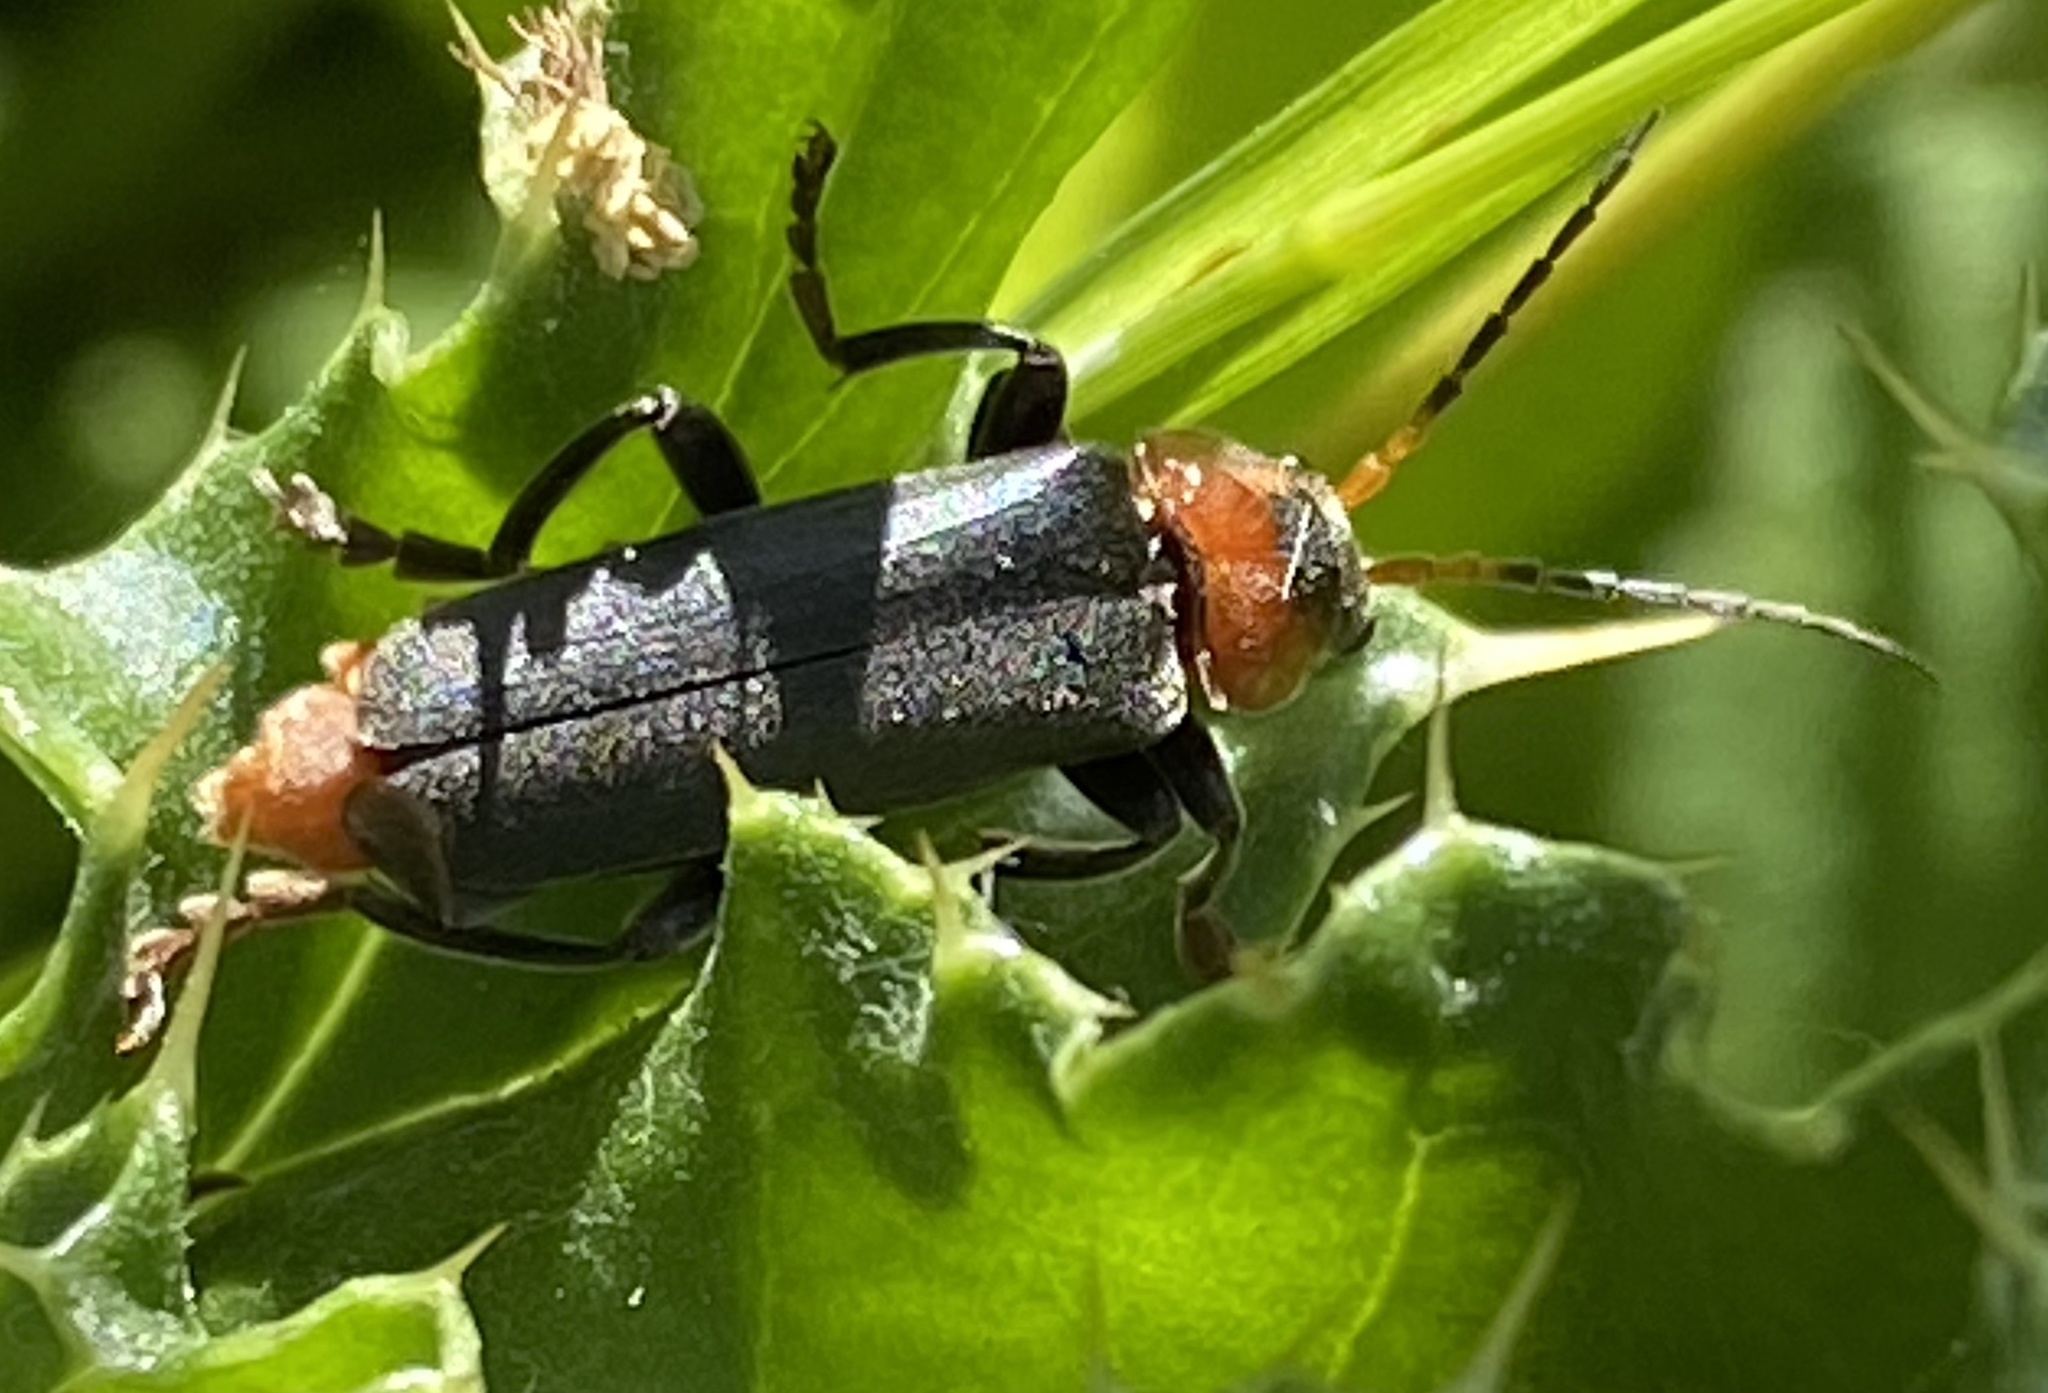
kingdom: Animalia
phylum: Arthropoda
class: Insecta
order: Coleoptera
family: Cantharidae
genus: Cantharis
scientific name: Cantharis fusca
